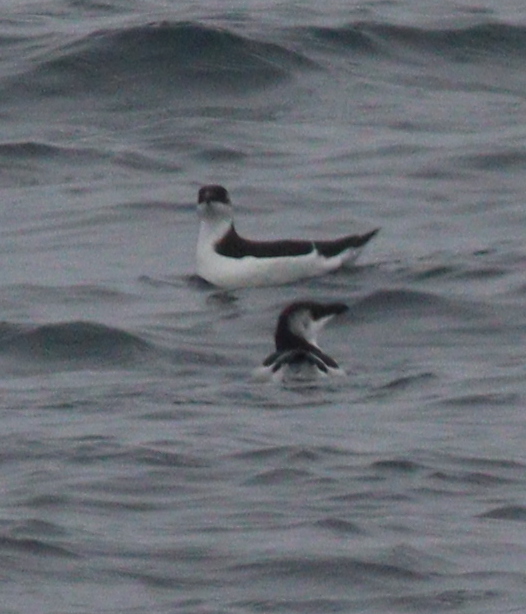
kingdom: Animalia
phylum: Chordata
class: Aves
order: Charadriiformes
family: Alcidae
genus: Alca
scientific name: Alca torda
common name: Razorbill
